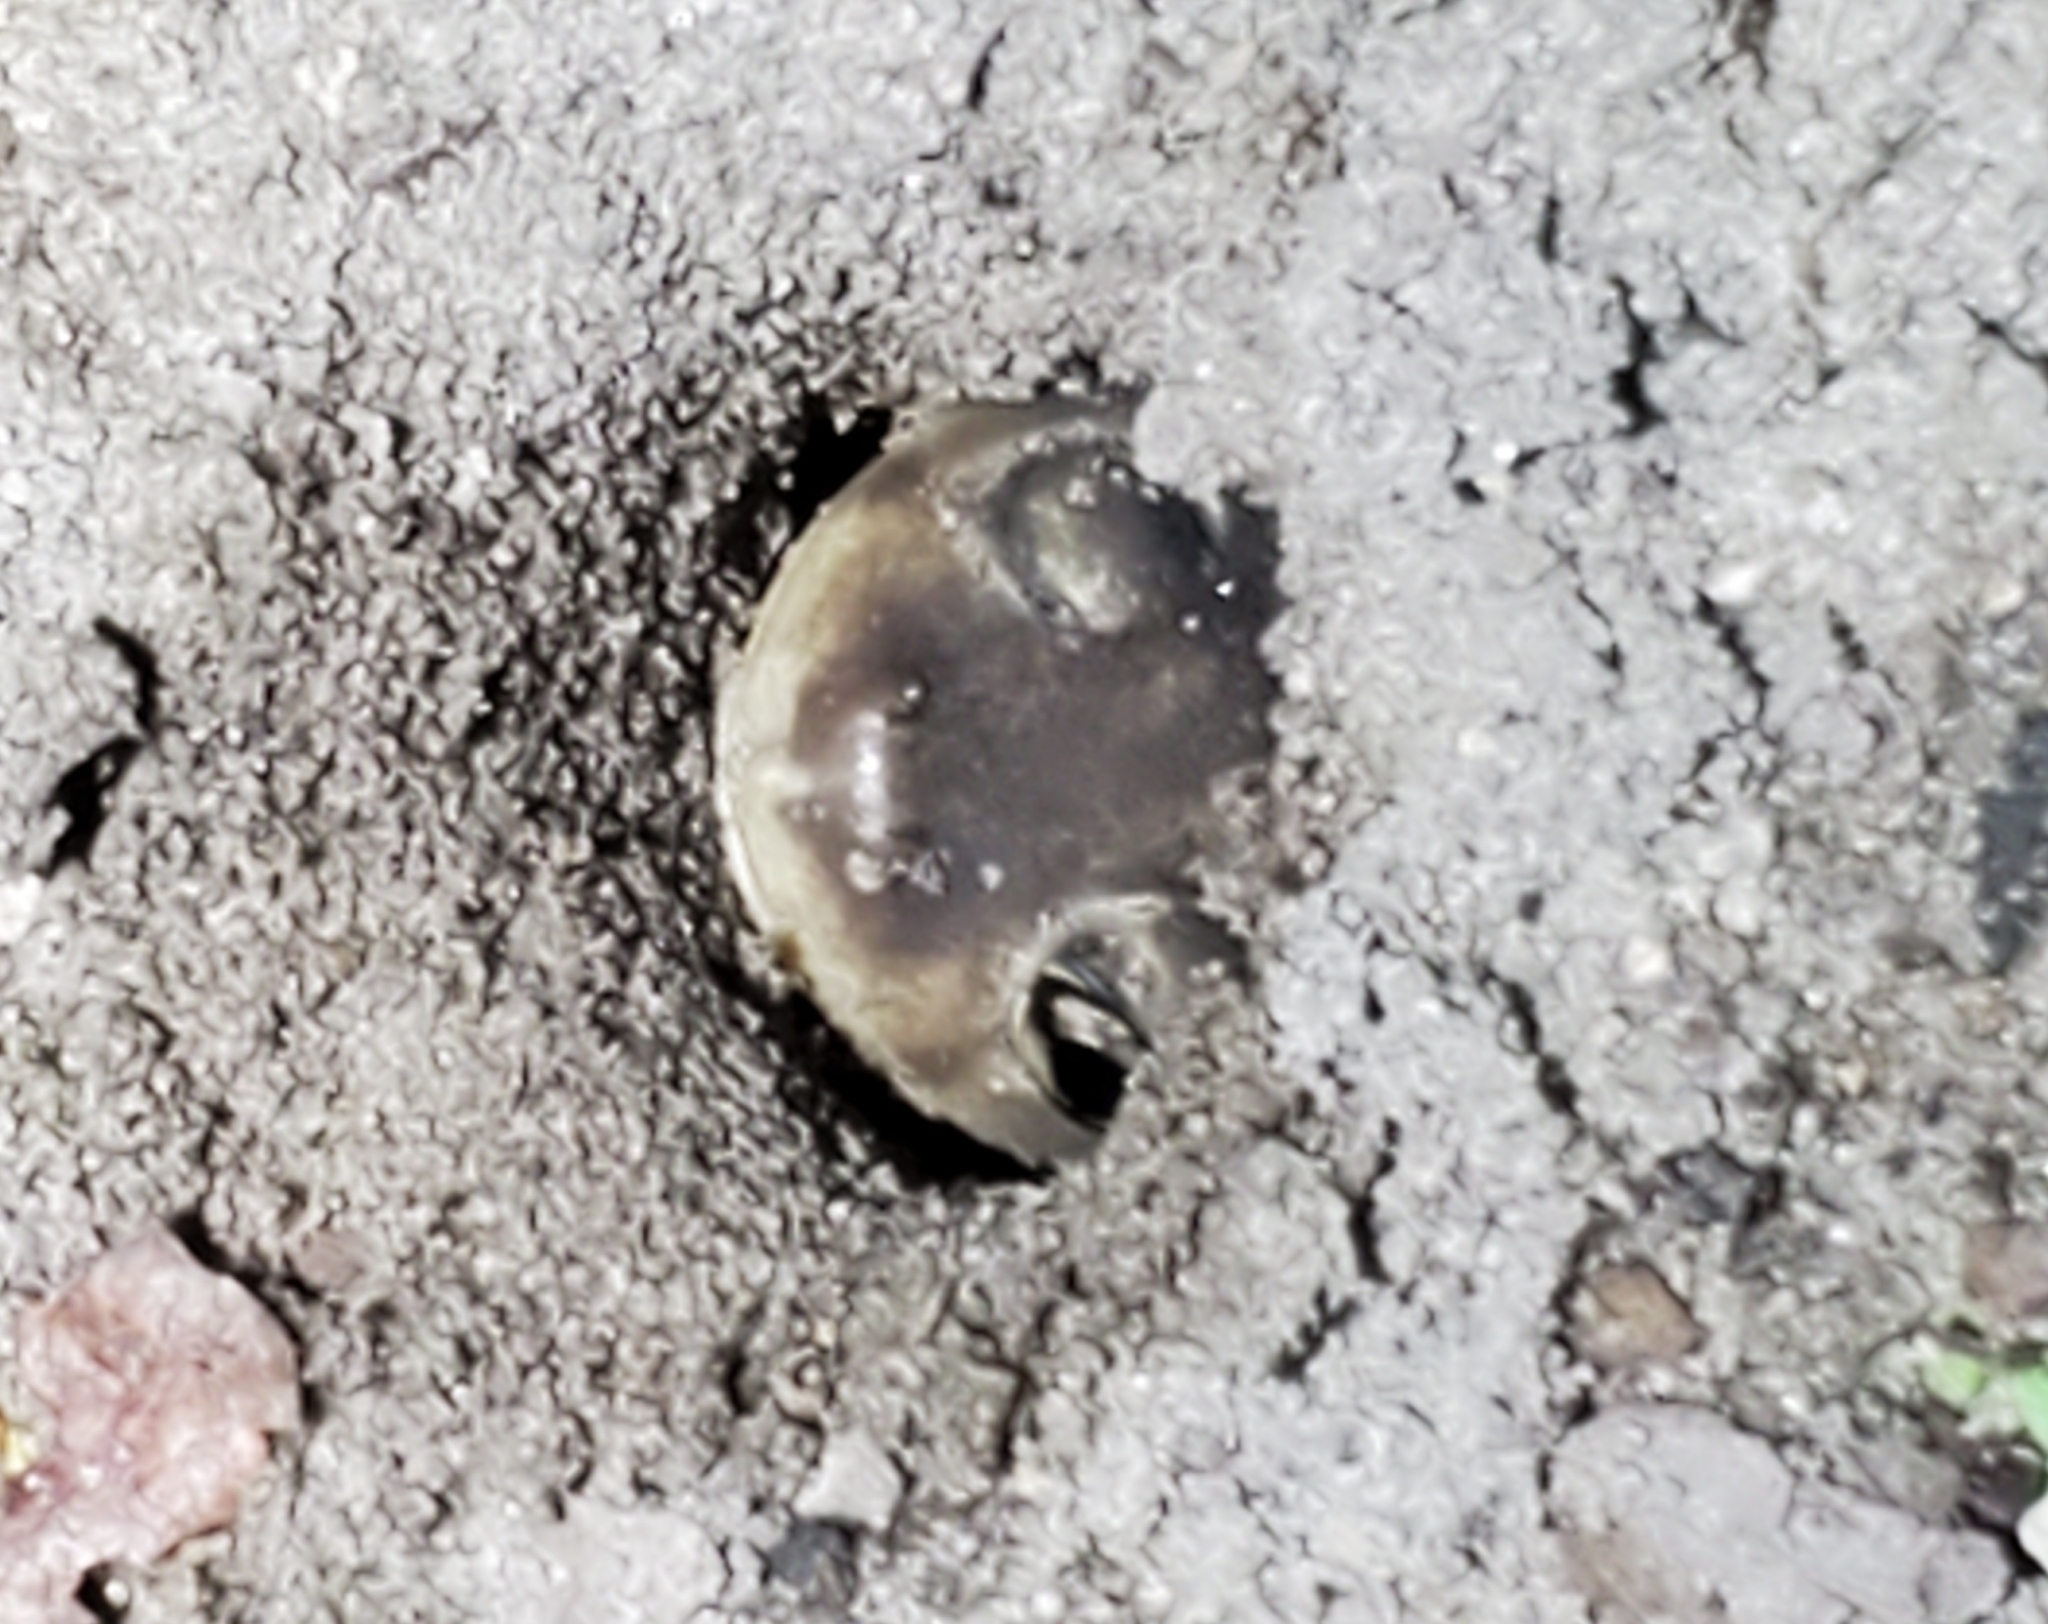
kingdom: Animalia
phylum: Chordata
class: Amphibia
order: Anura
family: Scaphiopodidae
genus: Scaphiopus
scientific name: Scaphiopus holbrookii
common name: Eastern spadefoot toad
